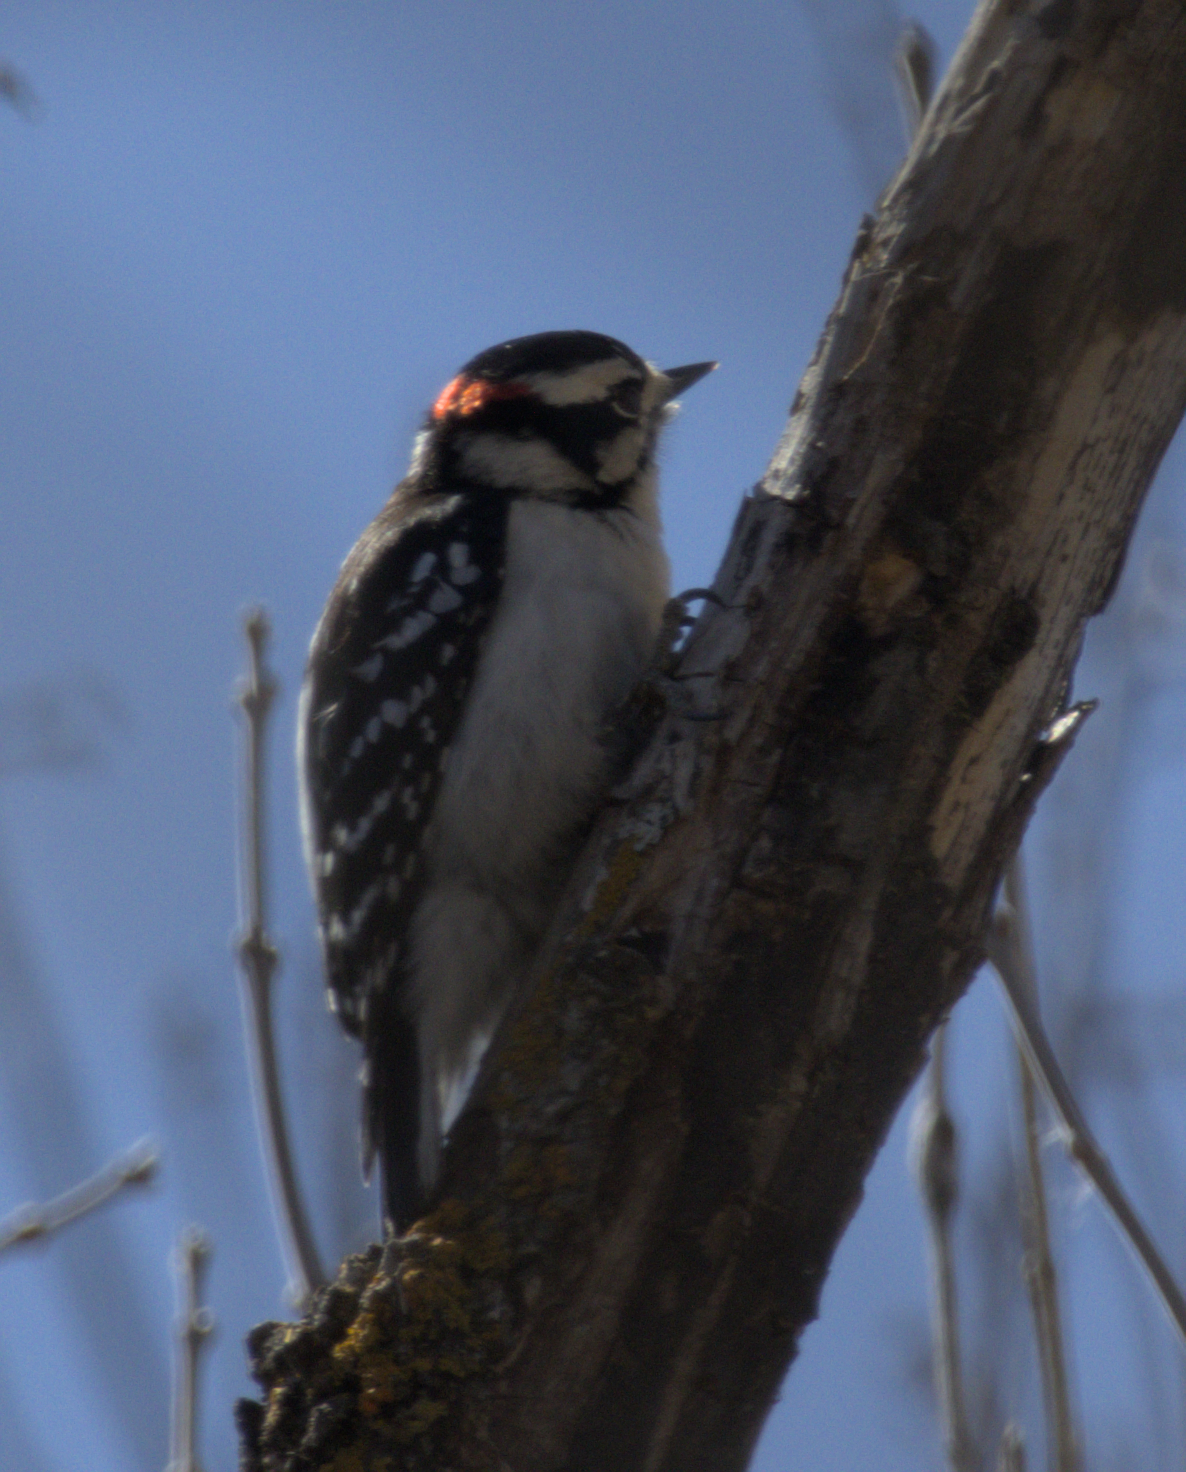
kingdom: Animalia
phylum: Chordata
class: Aves
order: Piciformes
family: Picidae
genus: Dryobates
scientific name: Dryobates pubescens
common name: Downy woodpecker
